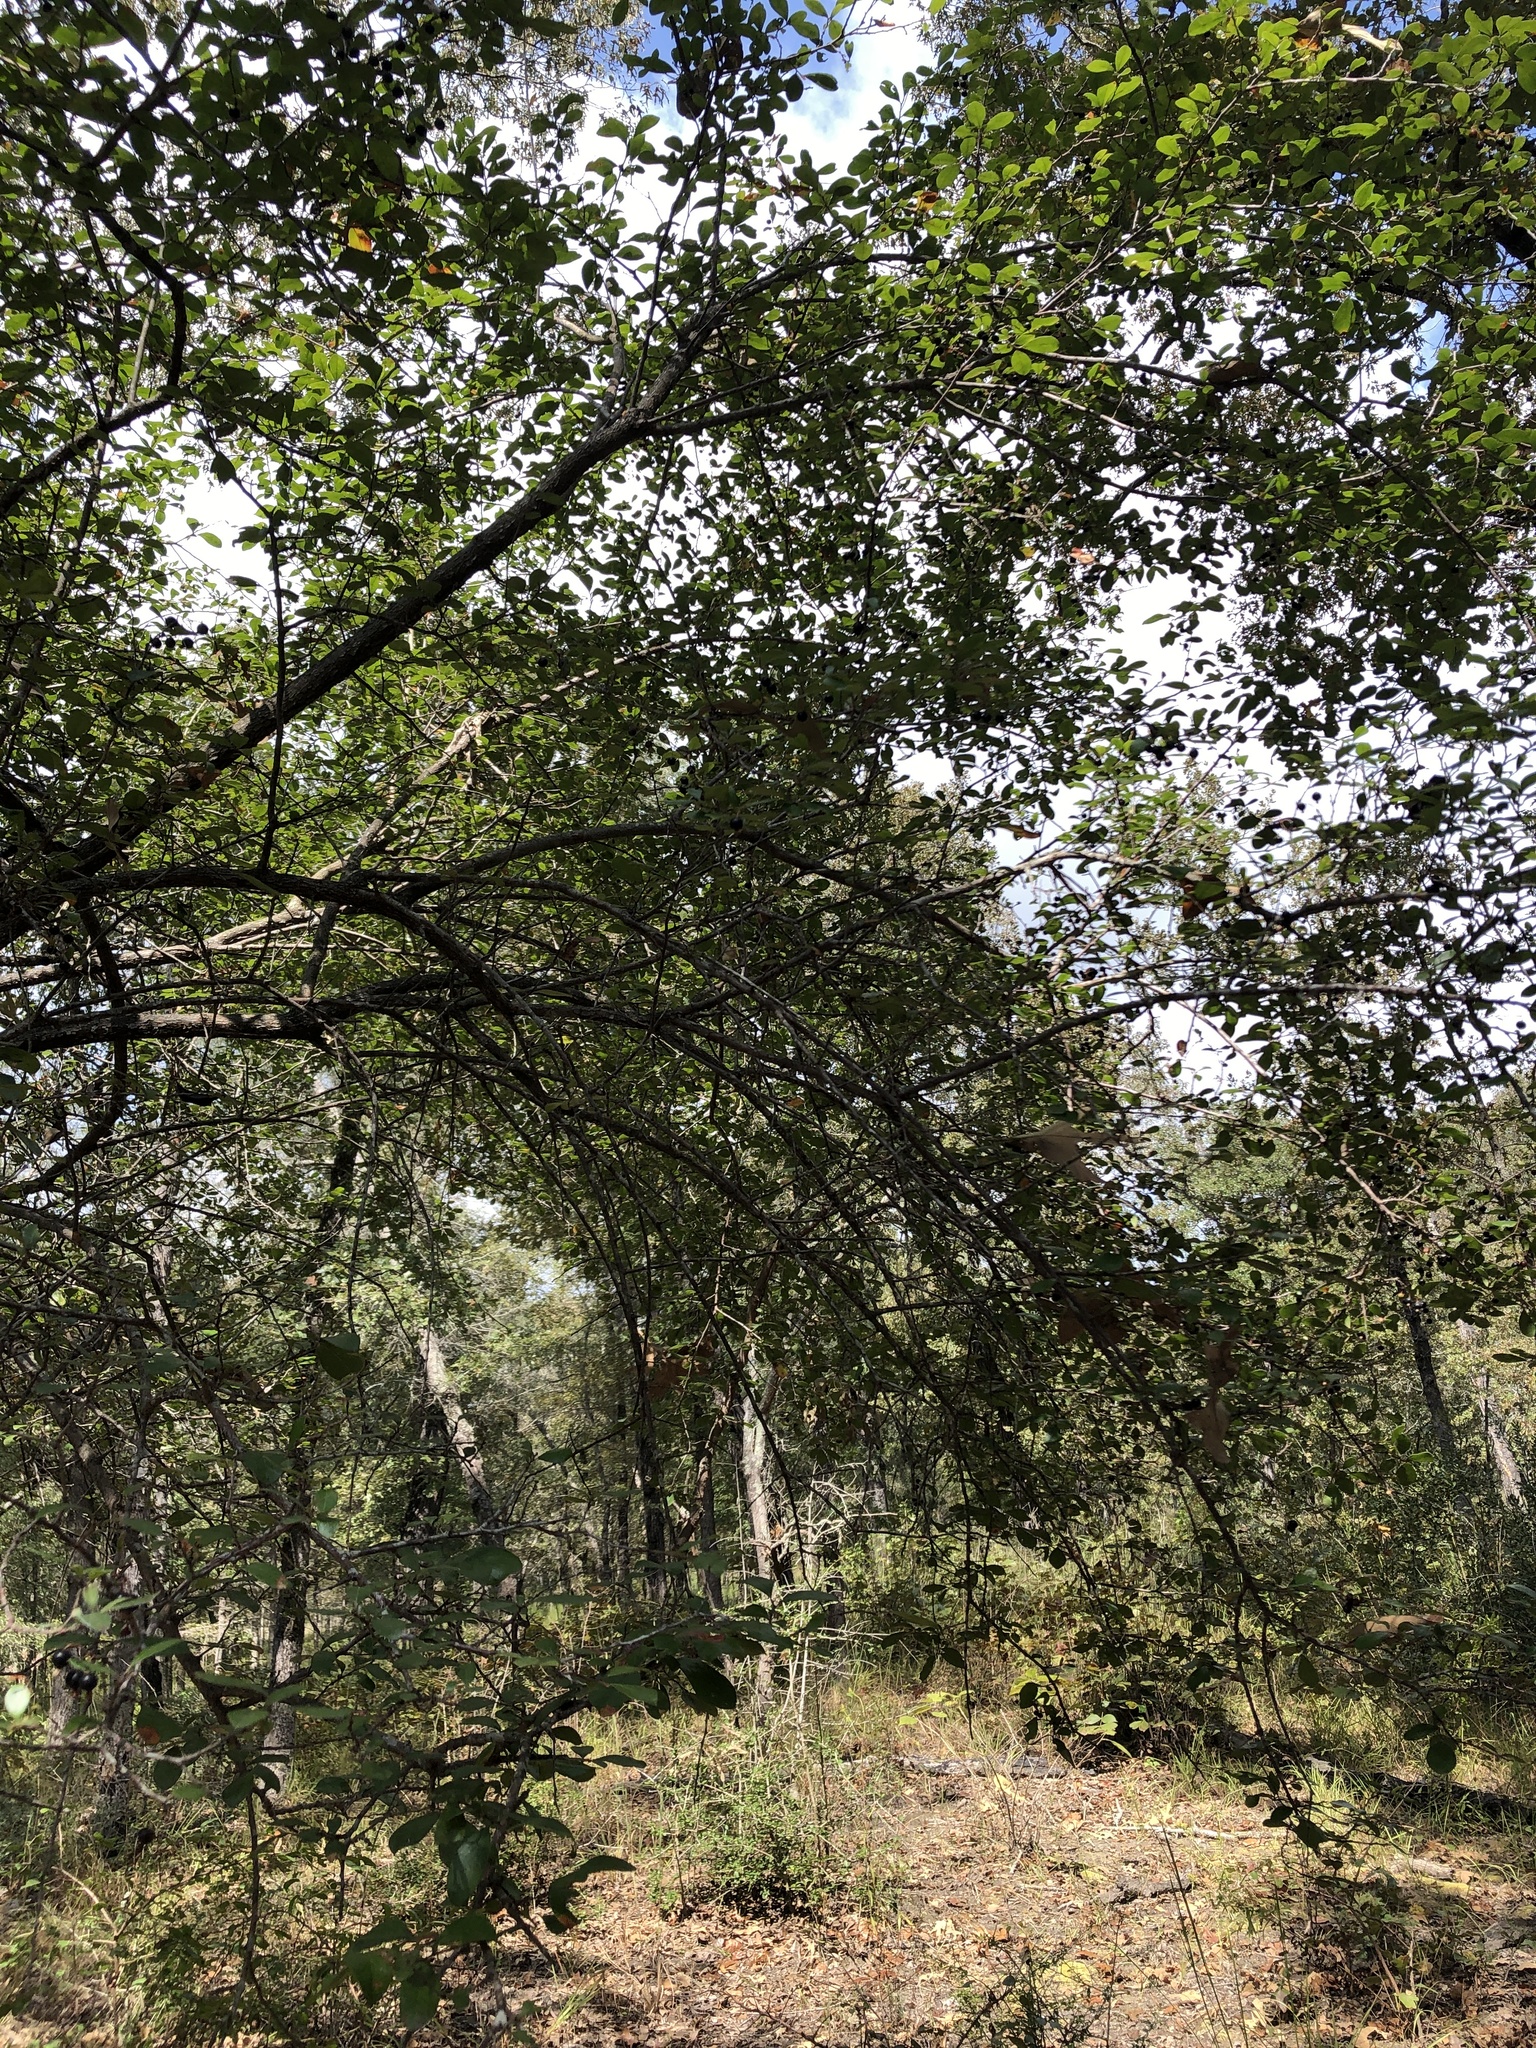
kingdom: Plantae
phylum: Tracheophyta
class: Magnoliopsida
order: Ericales
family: Ericaceae
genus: Vaccinium
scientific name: Vaccinium arboreum
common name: Farkleberry
